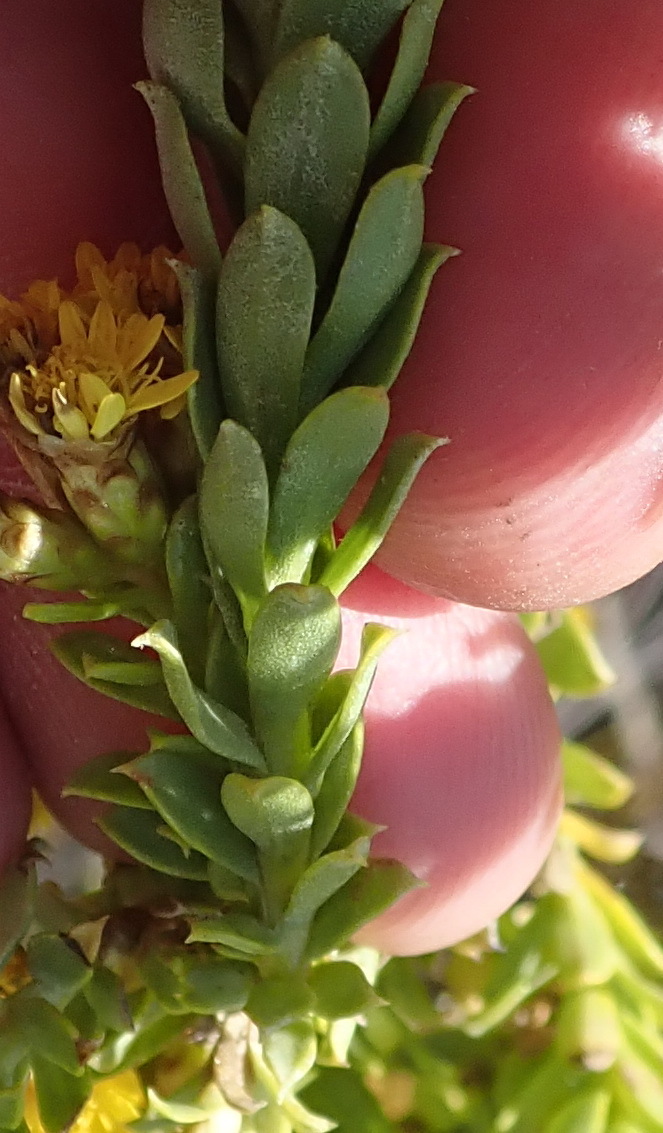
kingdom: Plantae
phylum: Tracheophyta
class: Magnoliopsida
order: Asterales
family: Asteraceae
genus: Oedera
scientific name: Oedera squarrosa
